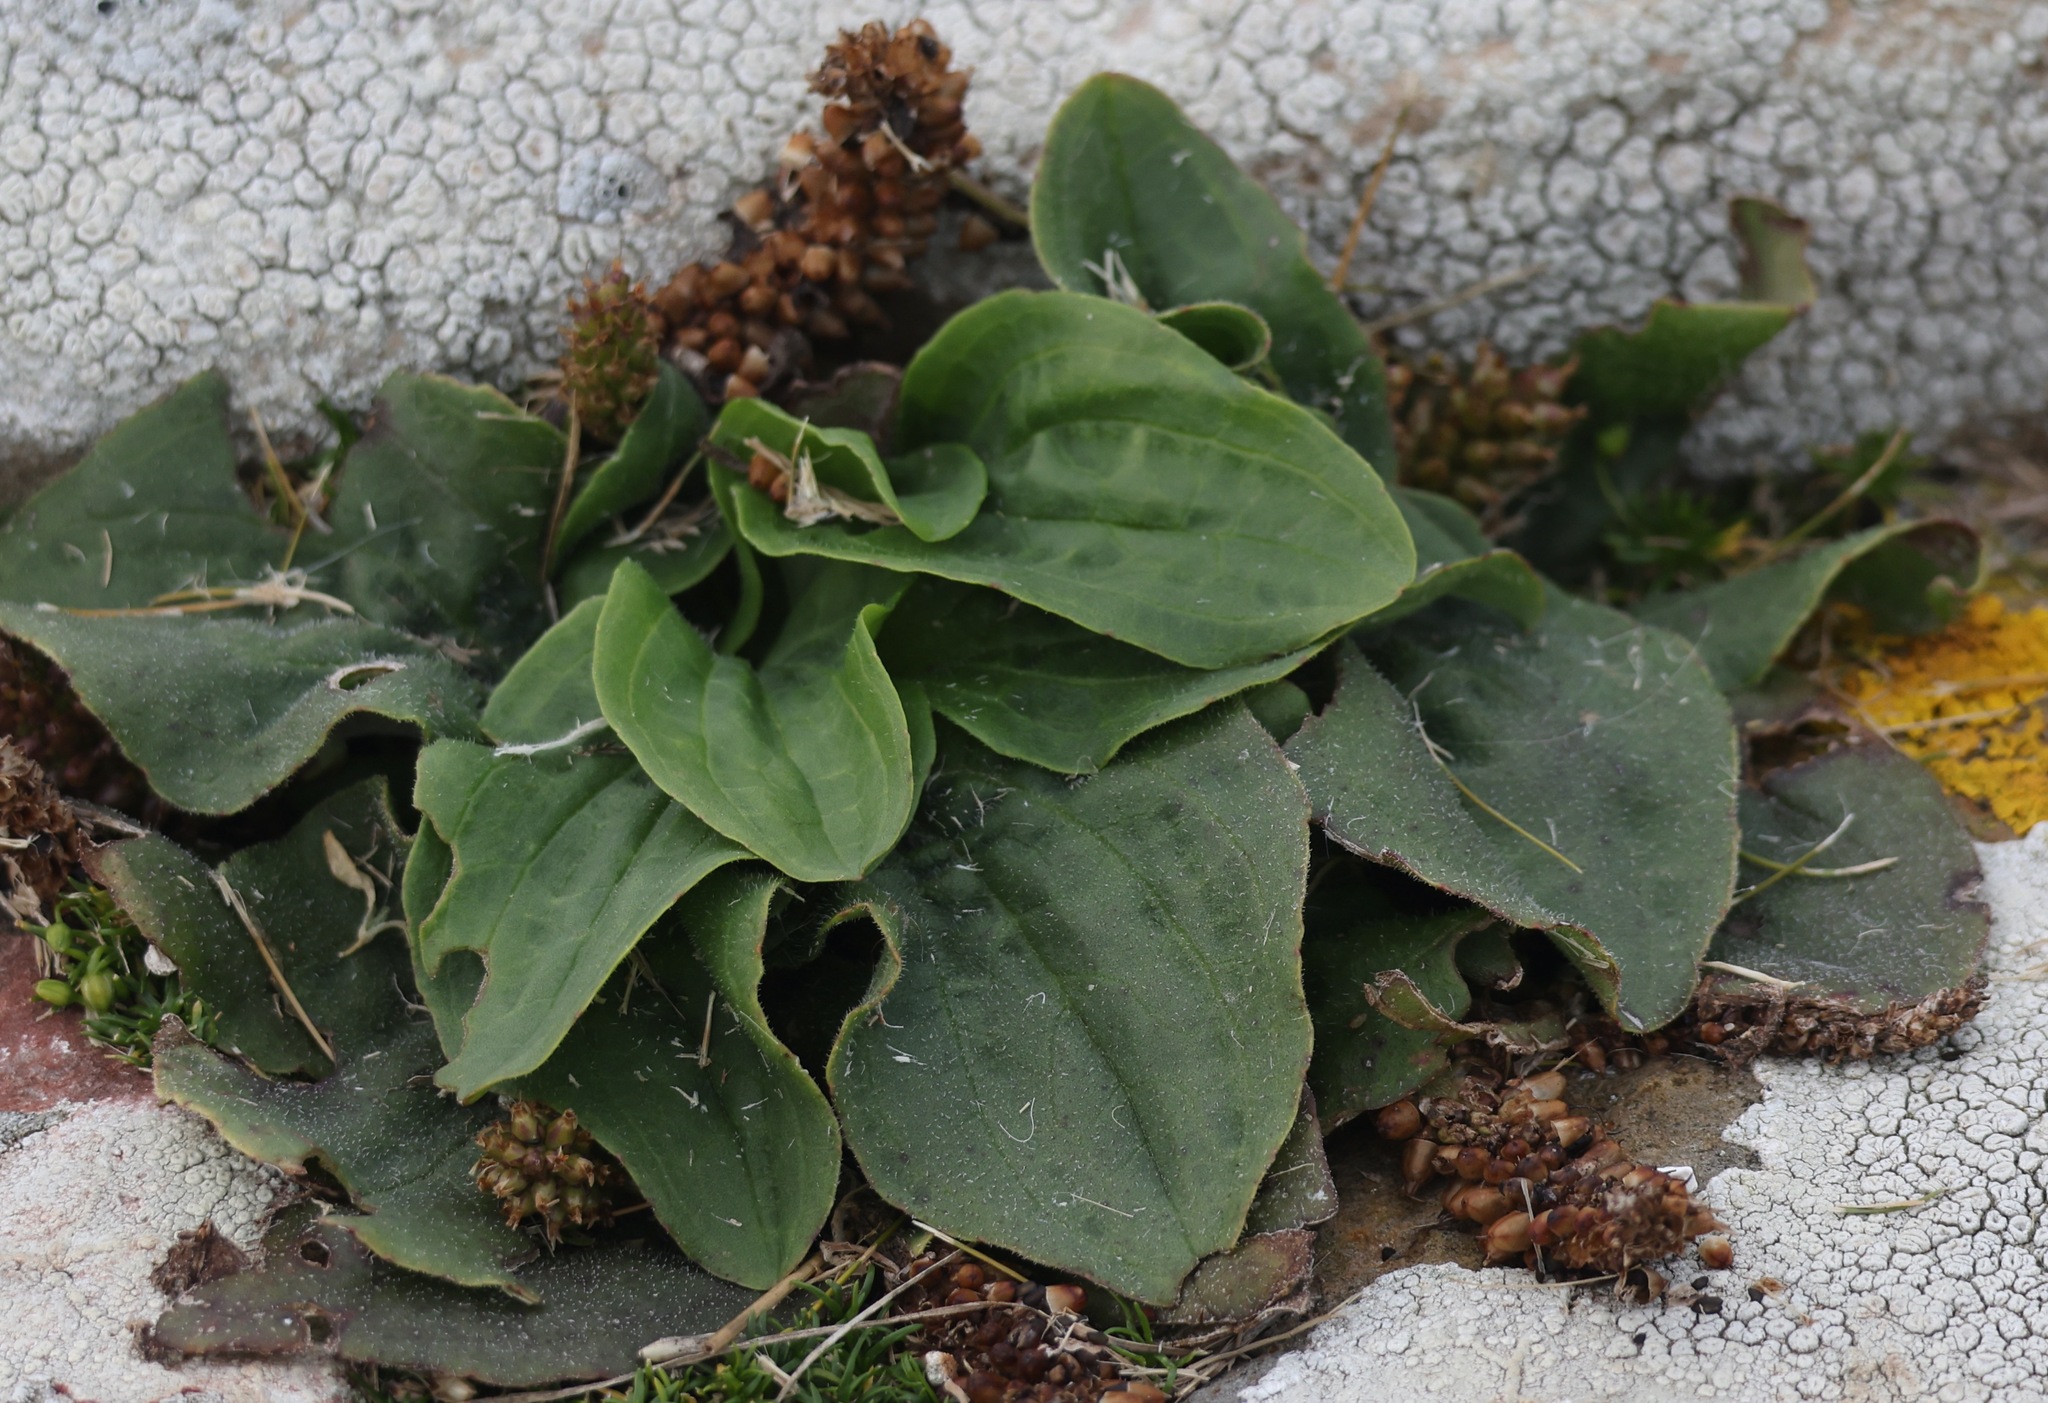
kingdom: Plantae
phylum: Tracheophyta
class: Magnoliopsida
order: Lamiales
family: Plantaginaceae
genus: Plantago
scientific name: Plantago major
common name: Common plantain
